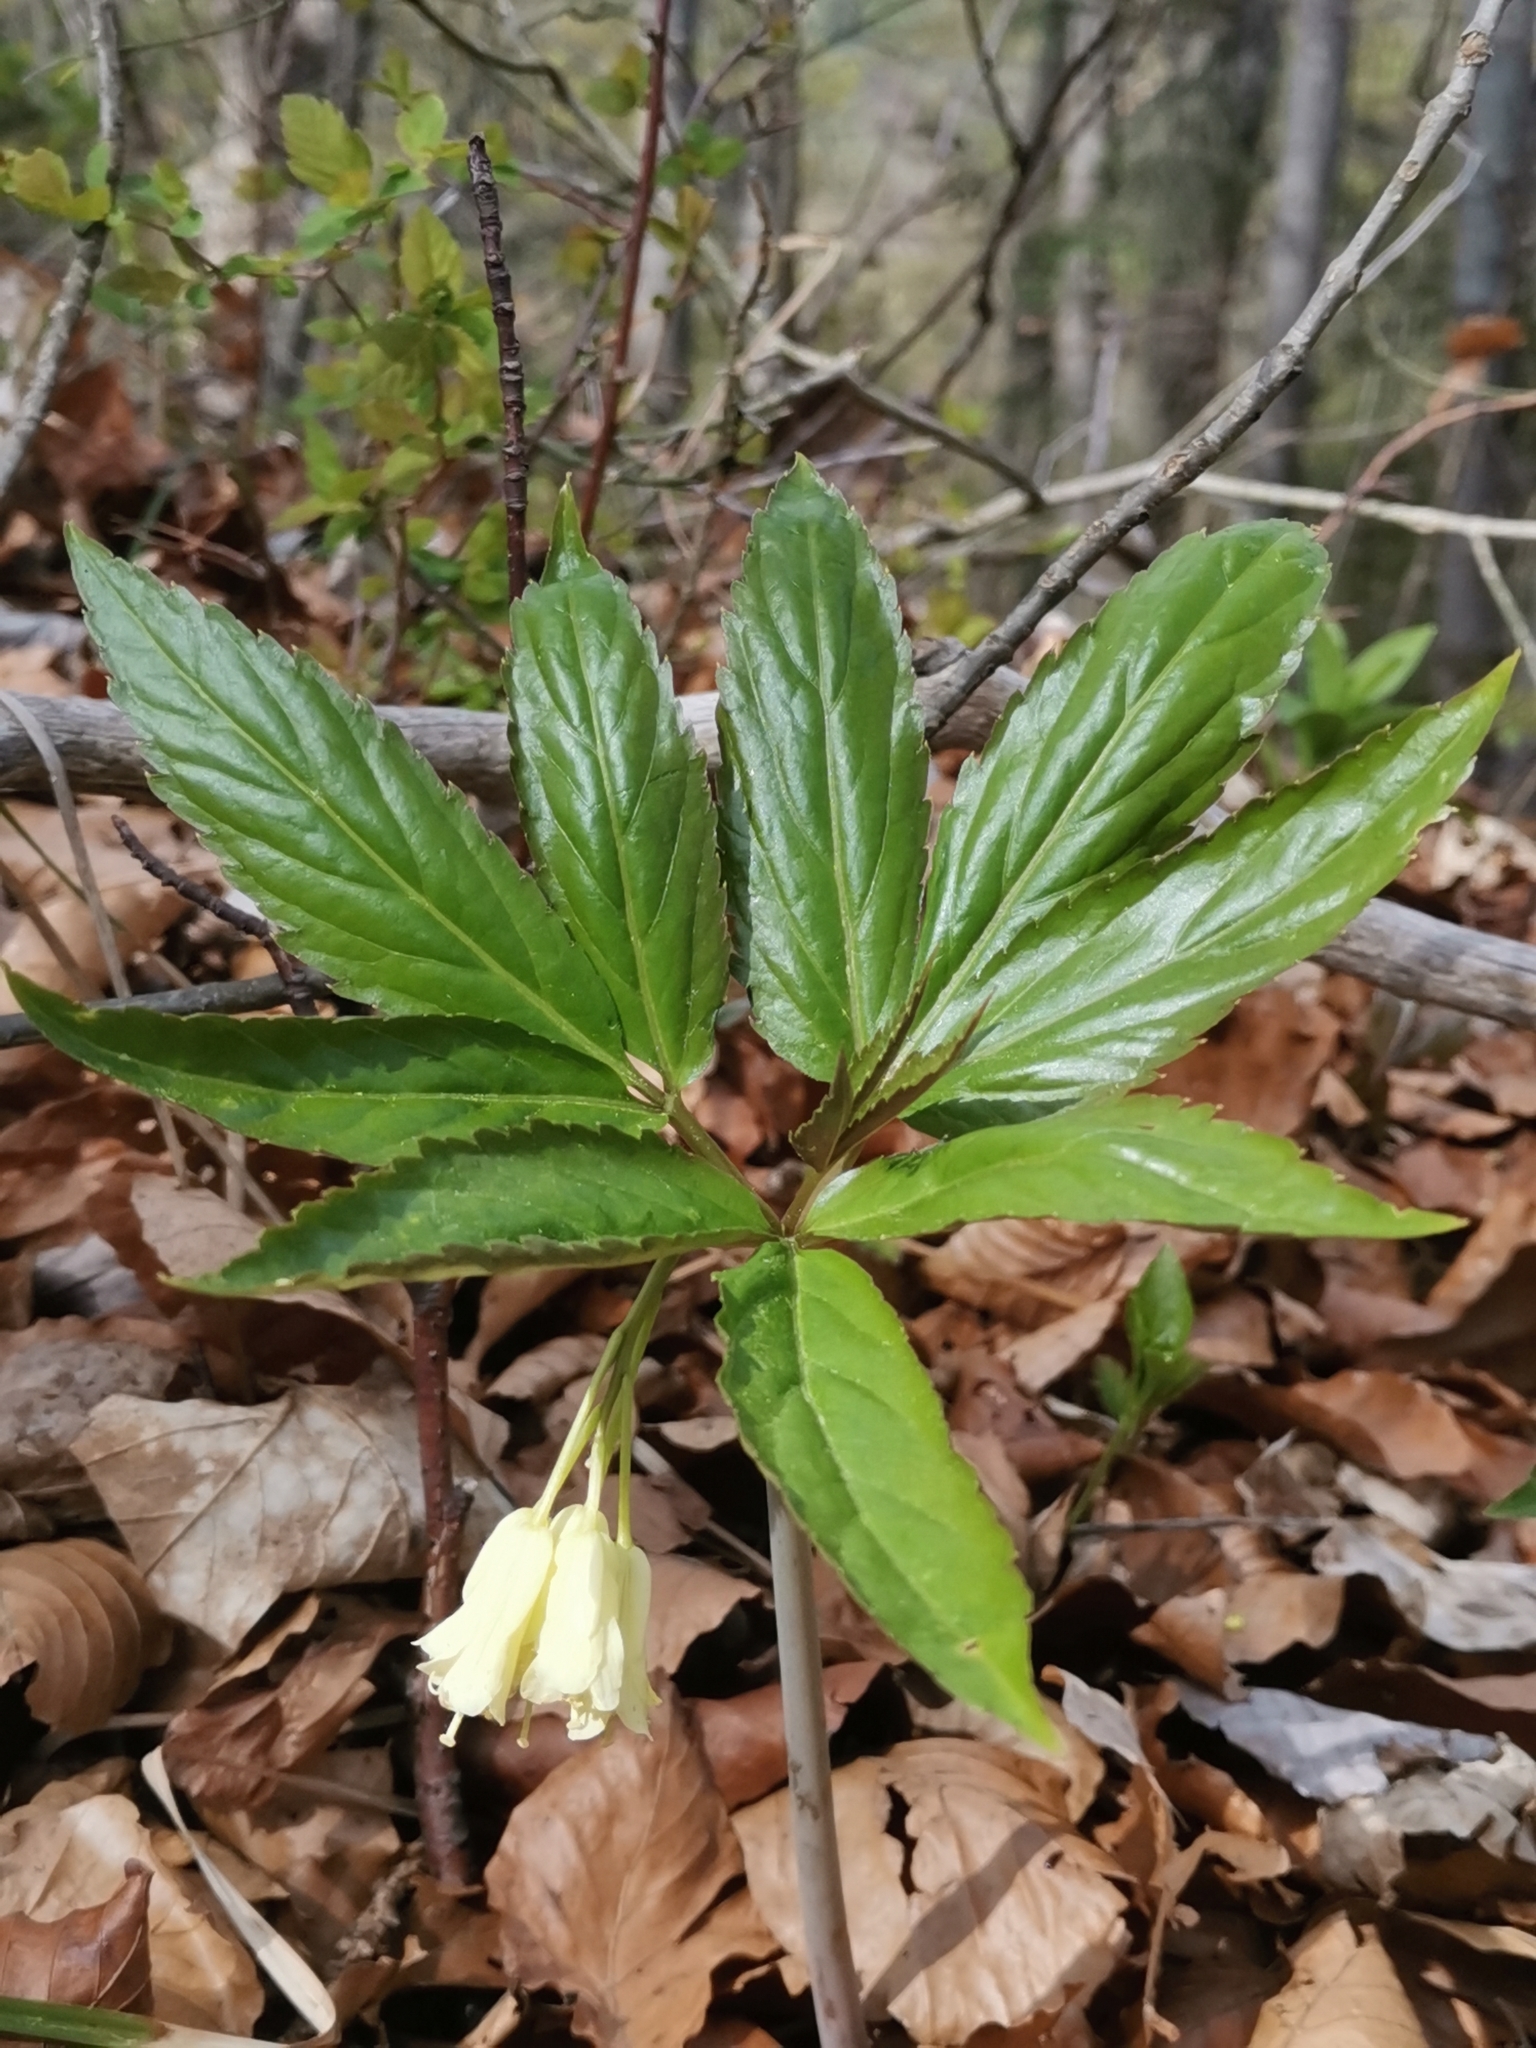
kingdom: Plantae
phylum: Tracheophyta
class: Magnoliopsida
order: Brassicales
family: Brassicaceae
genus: Cardamine
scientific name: Cardamine enneaphyllos
